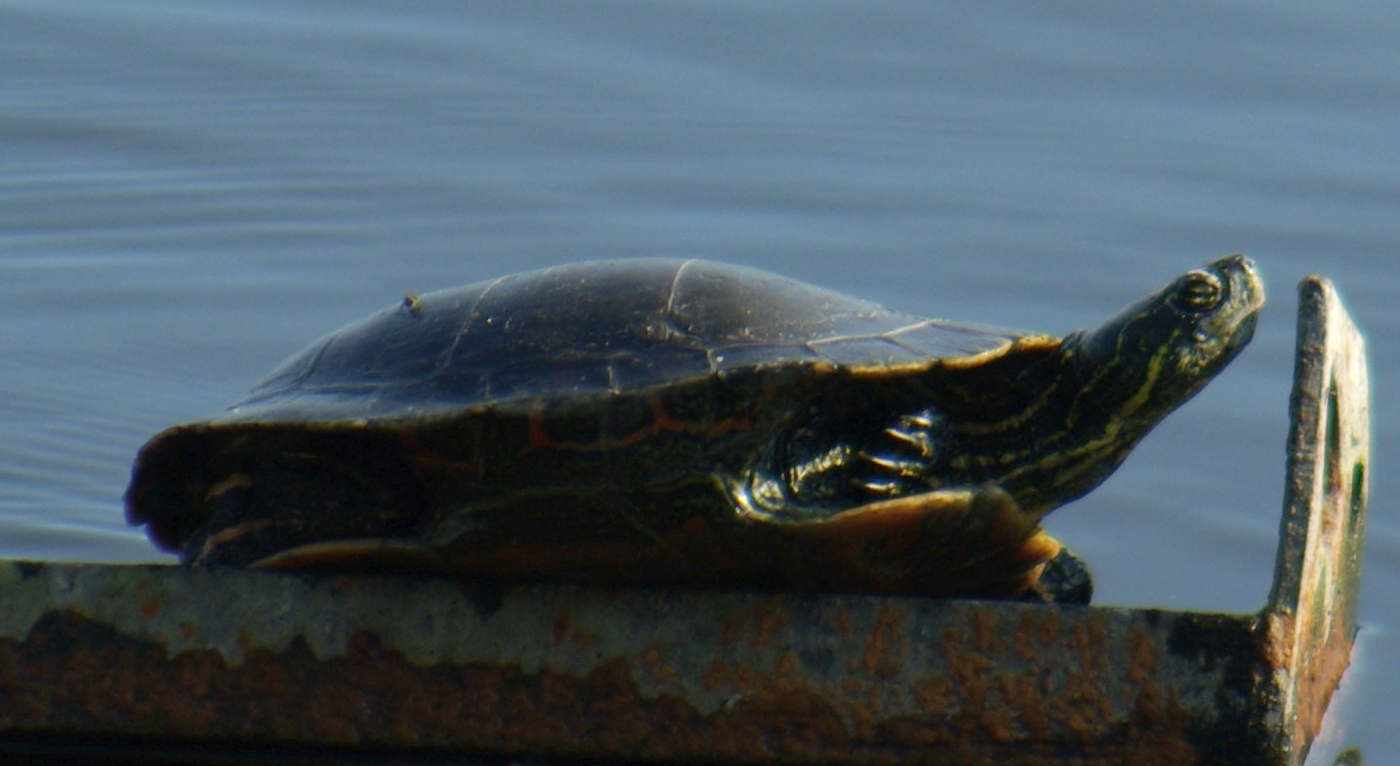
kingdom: Animalia
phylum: Chordata
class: Testudines
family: Emydidae
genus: Chrysemys
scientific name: Chrysemys picta
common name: Painted turtle
